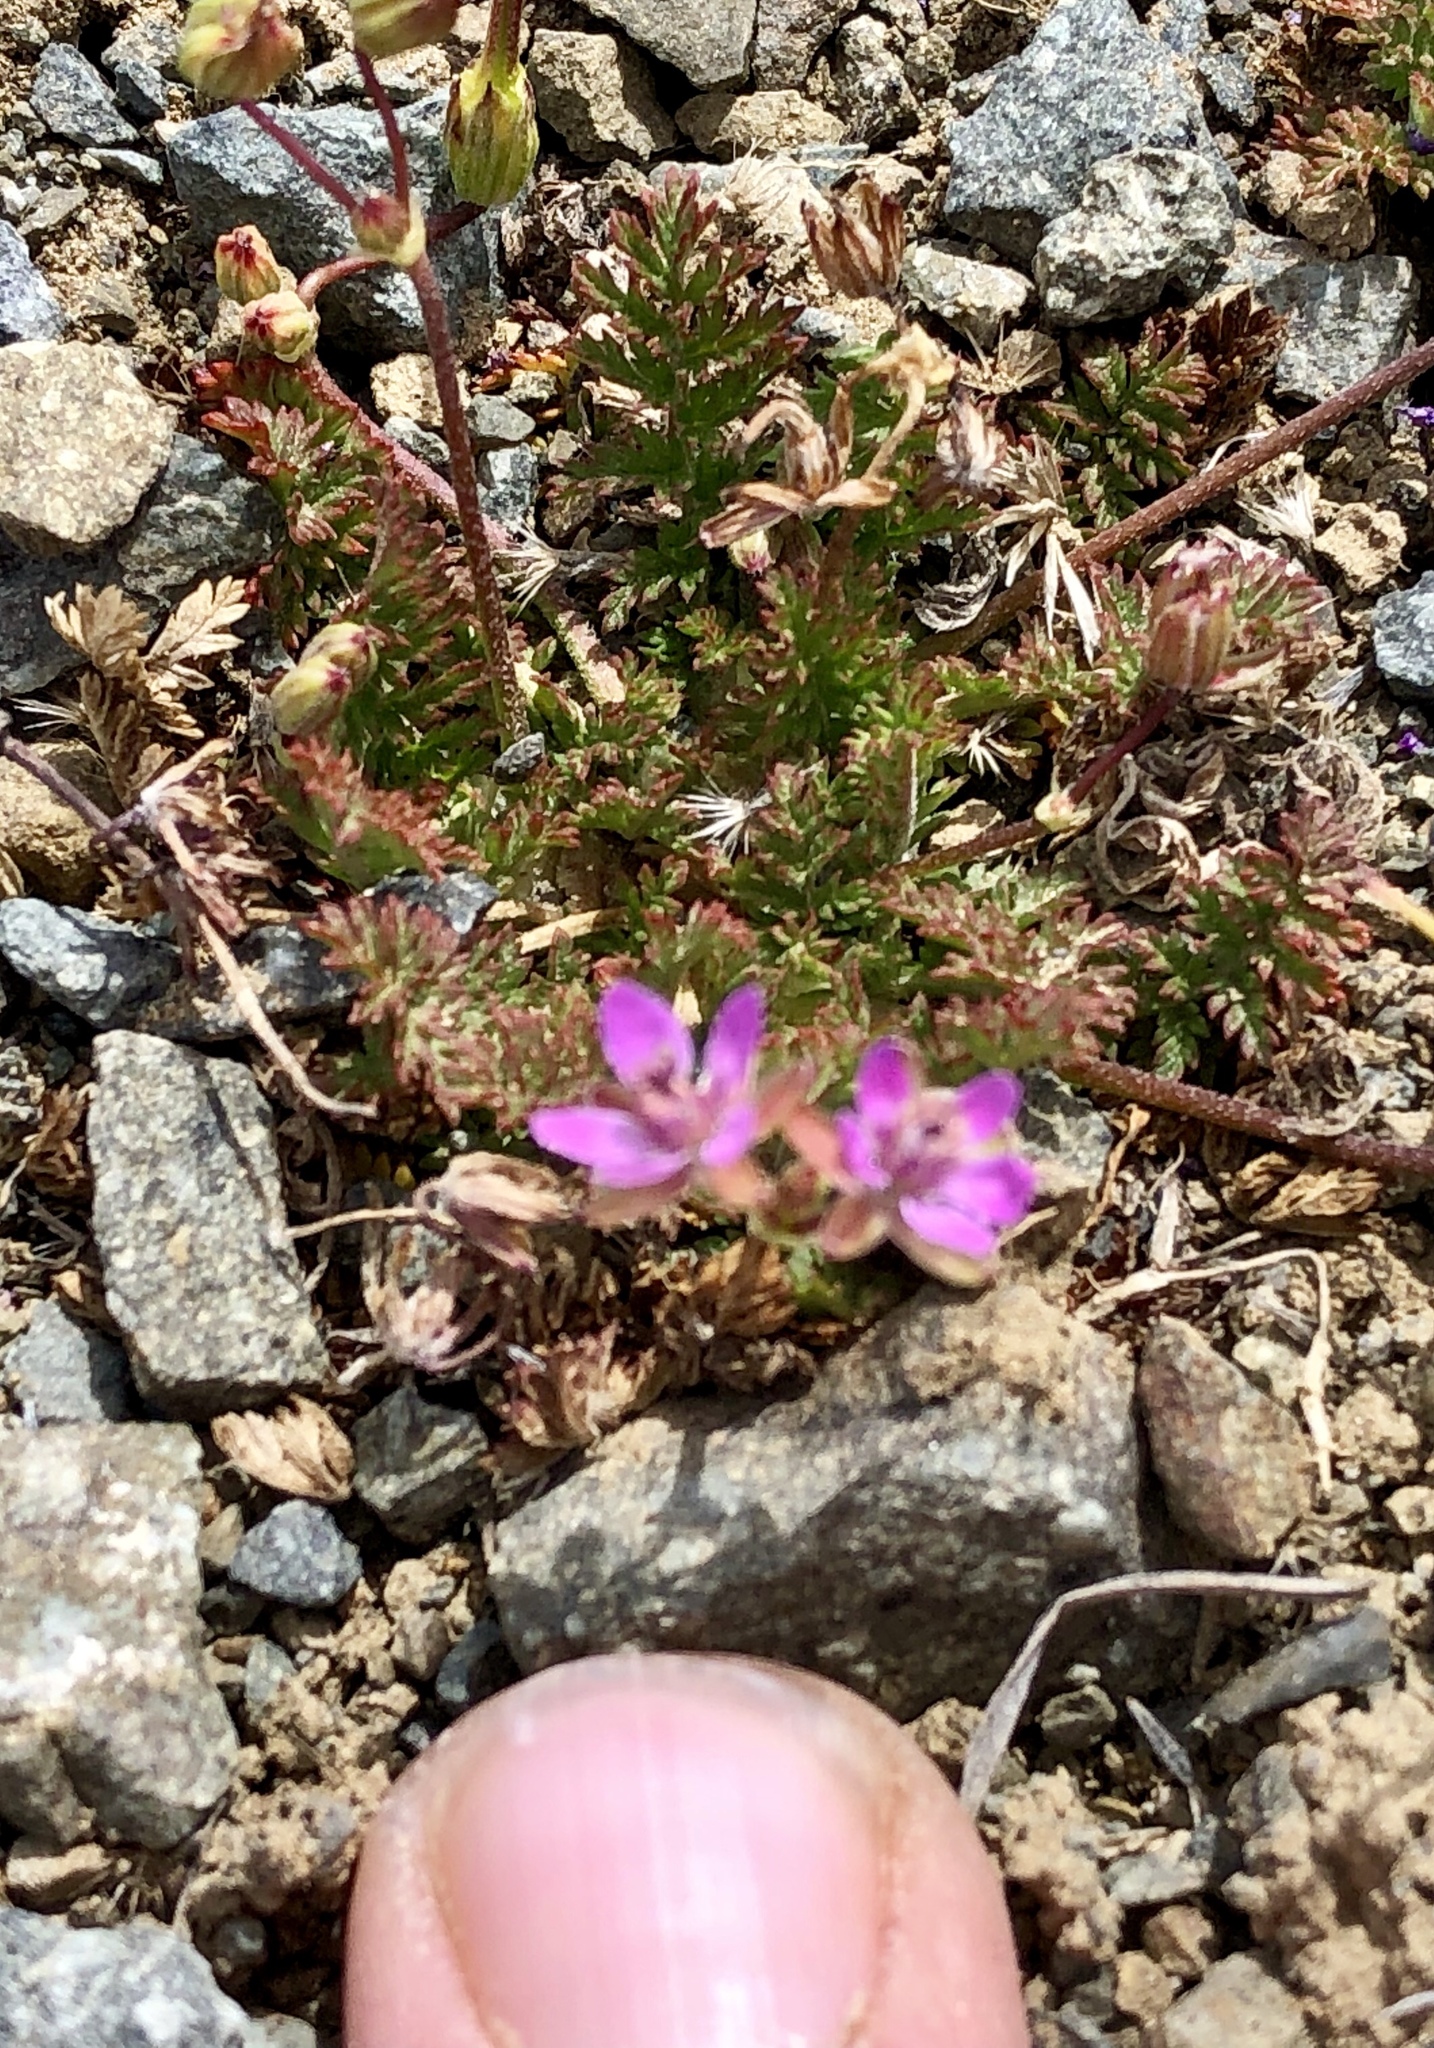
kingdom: Plantae
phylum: Tracheophyta
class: Magnoliopsida
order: Geraniales
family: Geraniaceae
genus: Erodium
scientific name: Erodium cicutarium
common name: Common stork's-bill
